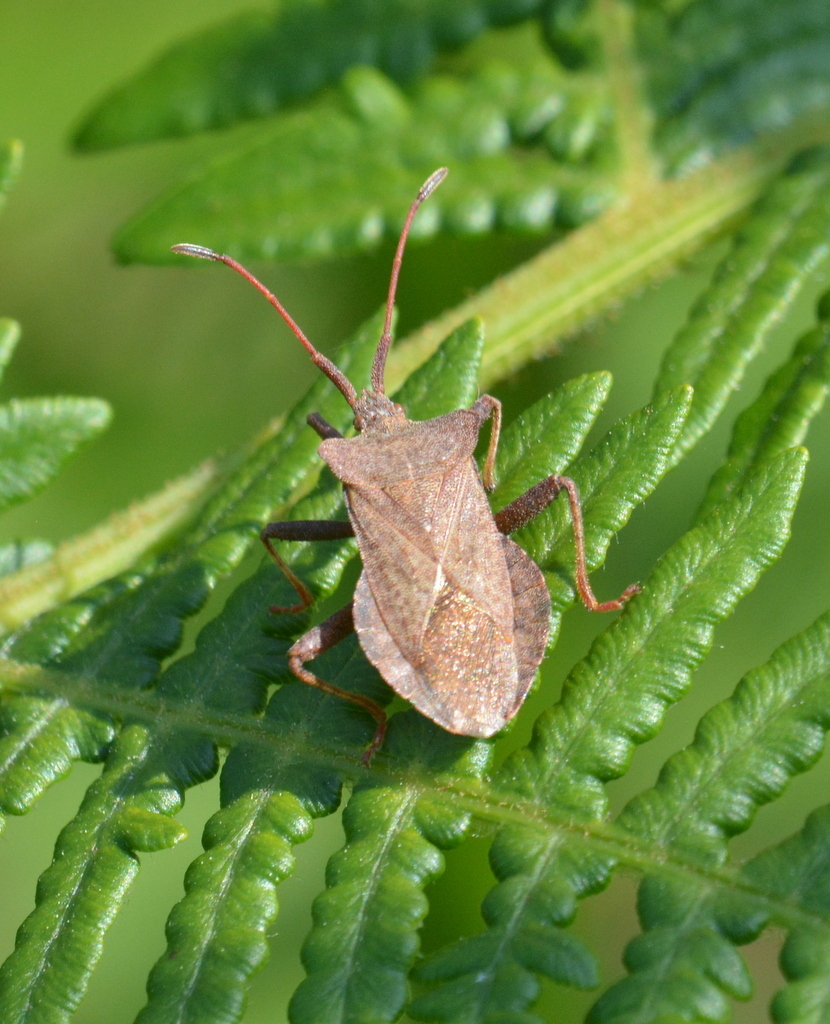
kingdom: Animalia
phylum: Arthropoda
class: Insecta
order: Hemiptera
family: Coreidae
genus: Coreus
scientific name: Coreus marginatus
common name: Dock bug
